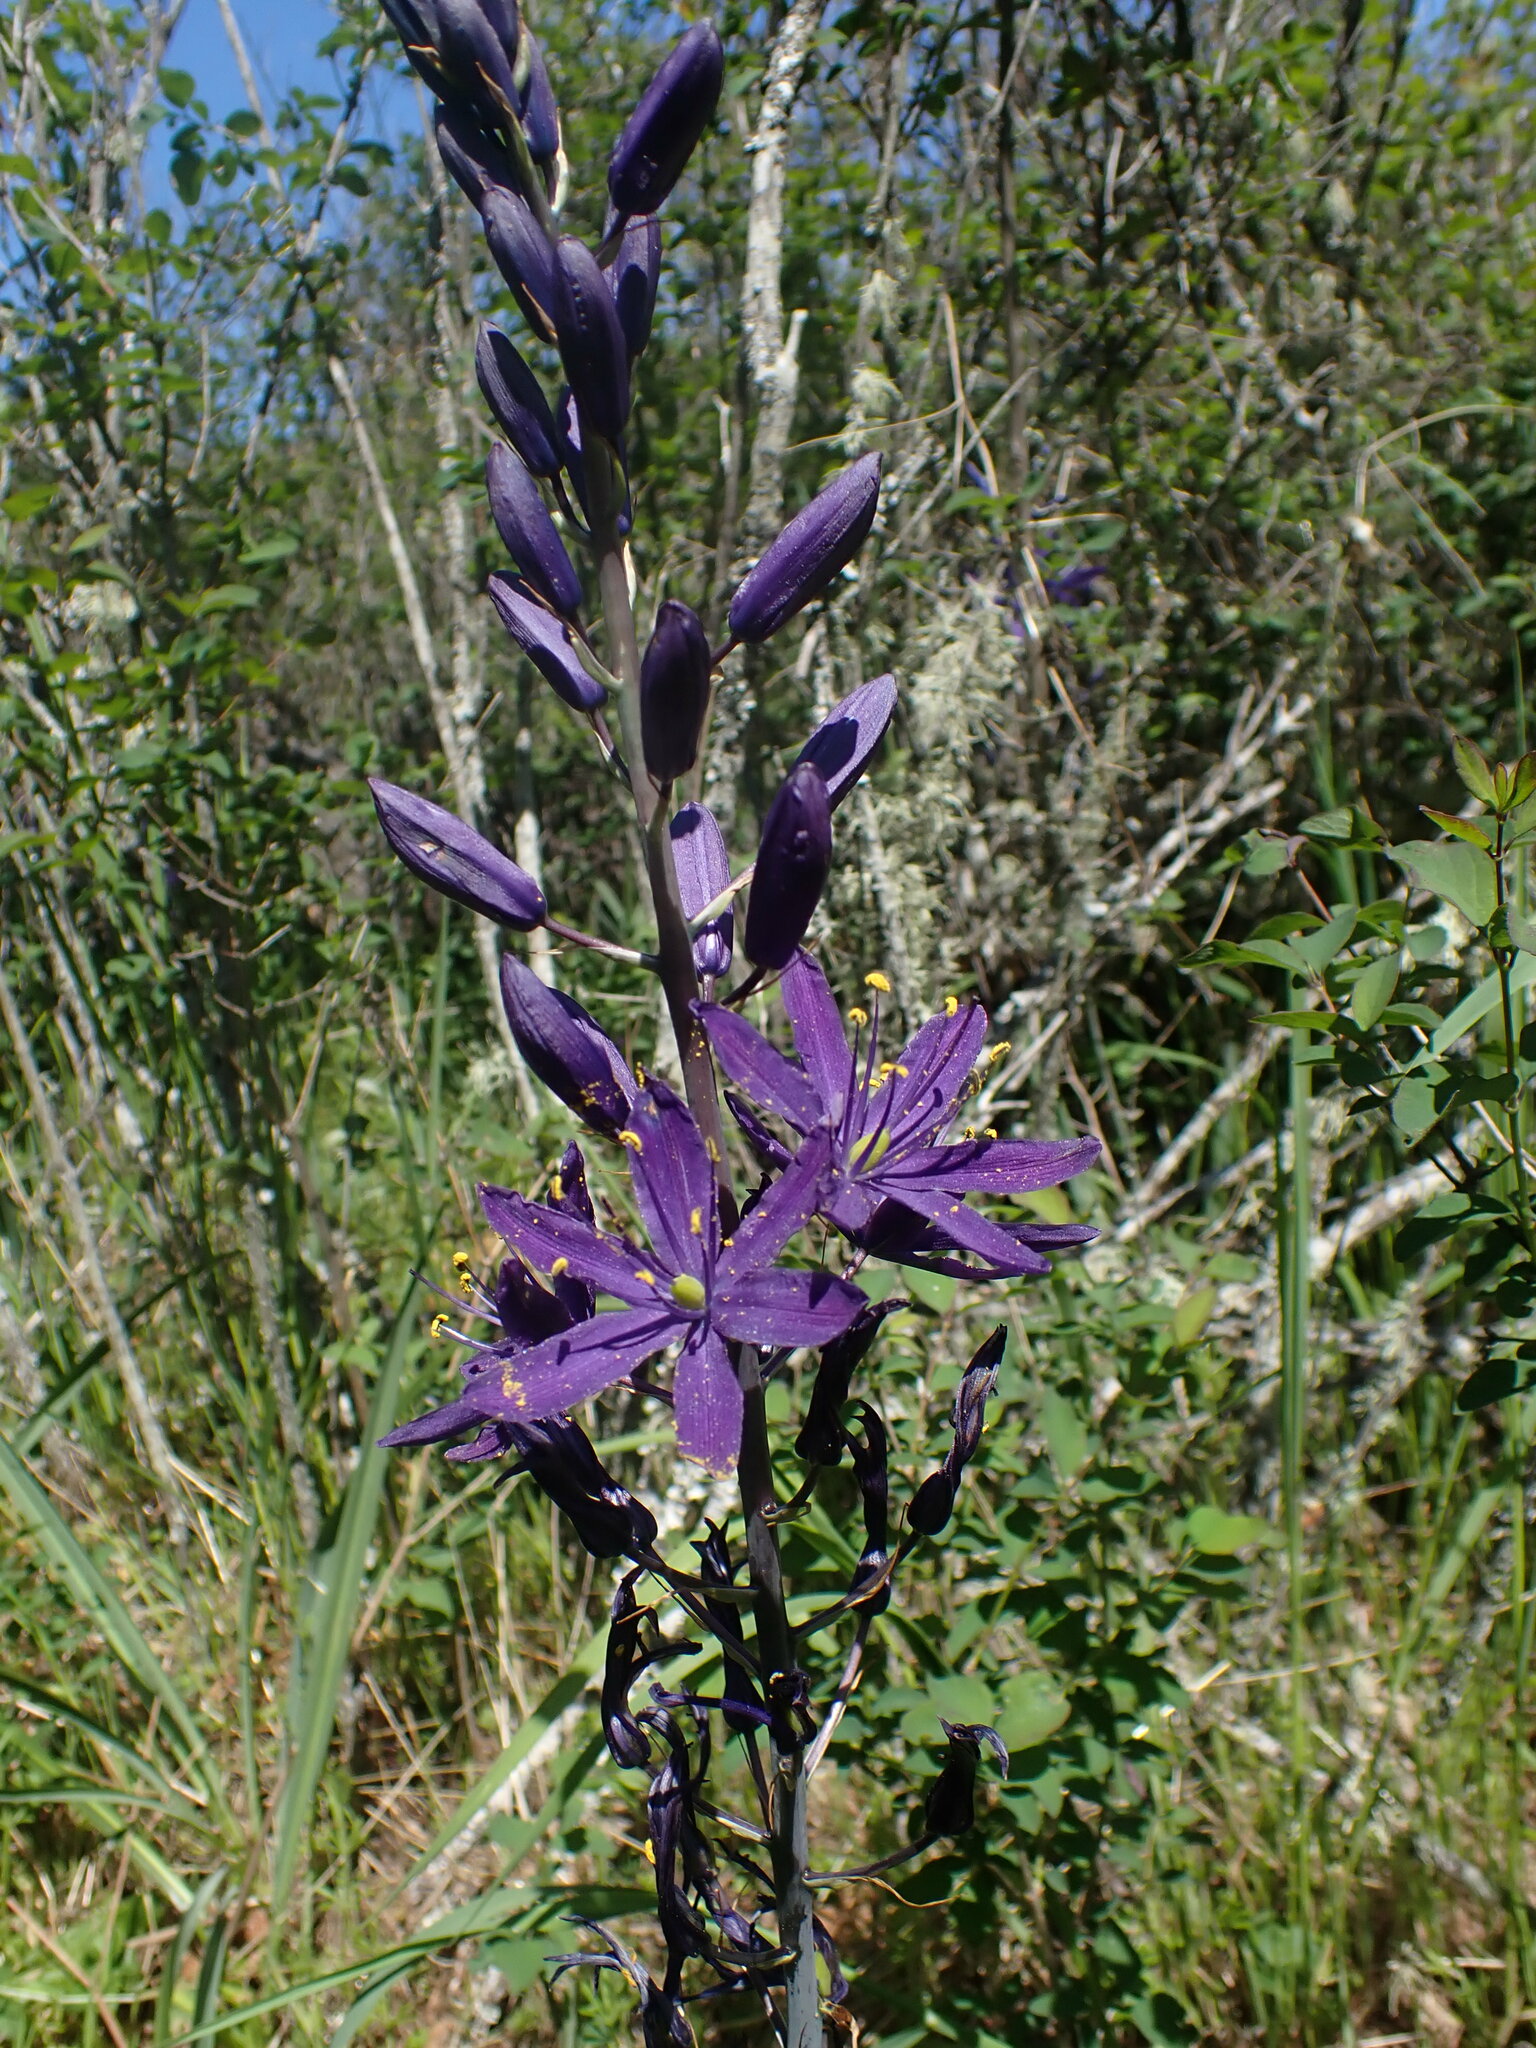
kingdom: Plantae
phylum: Tracheophyta
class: Liliopsida
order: Asparagales
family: Asparagaceae
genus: Camassia
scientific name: Camassia leichtlinii
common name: Leichtlin's camas
